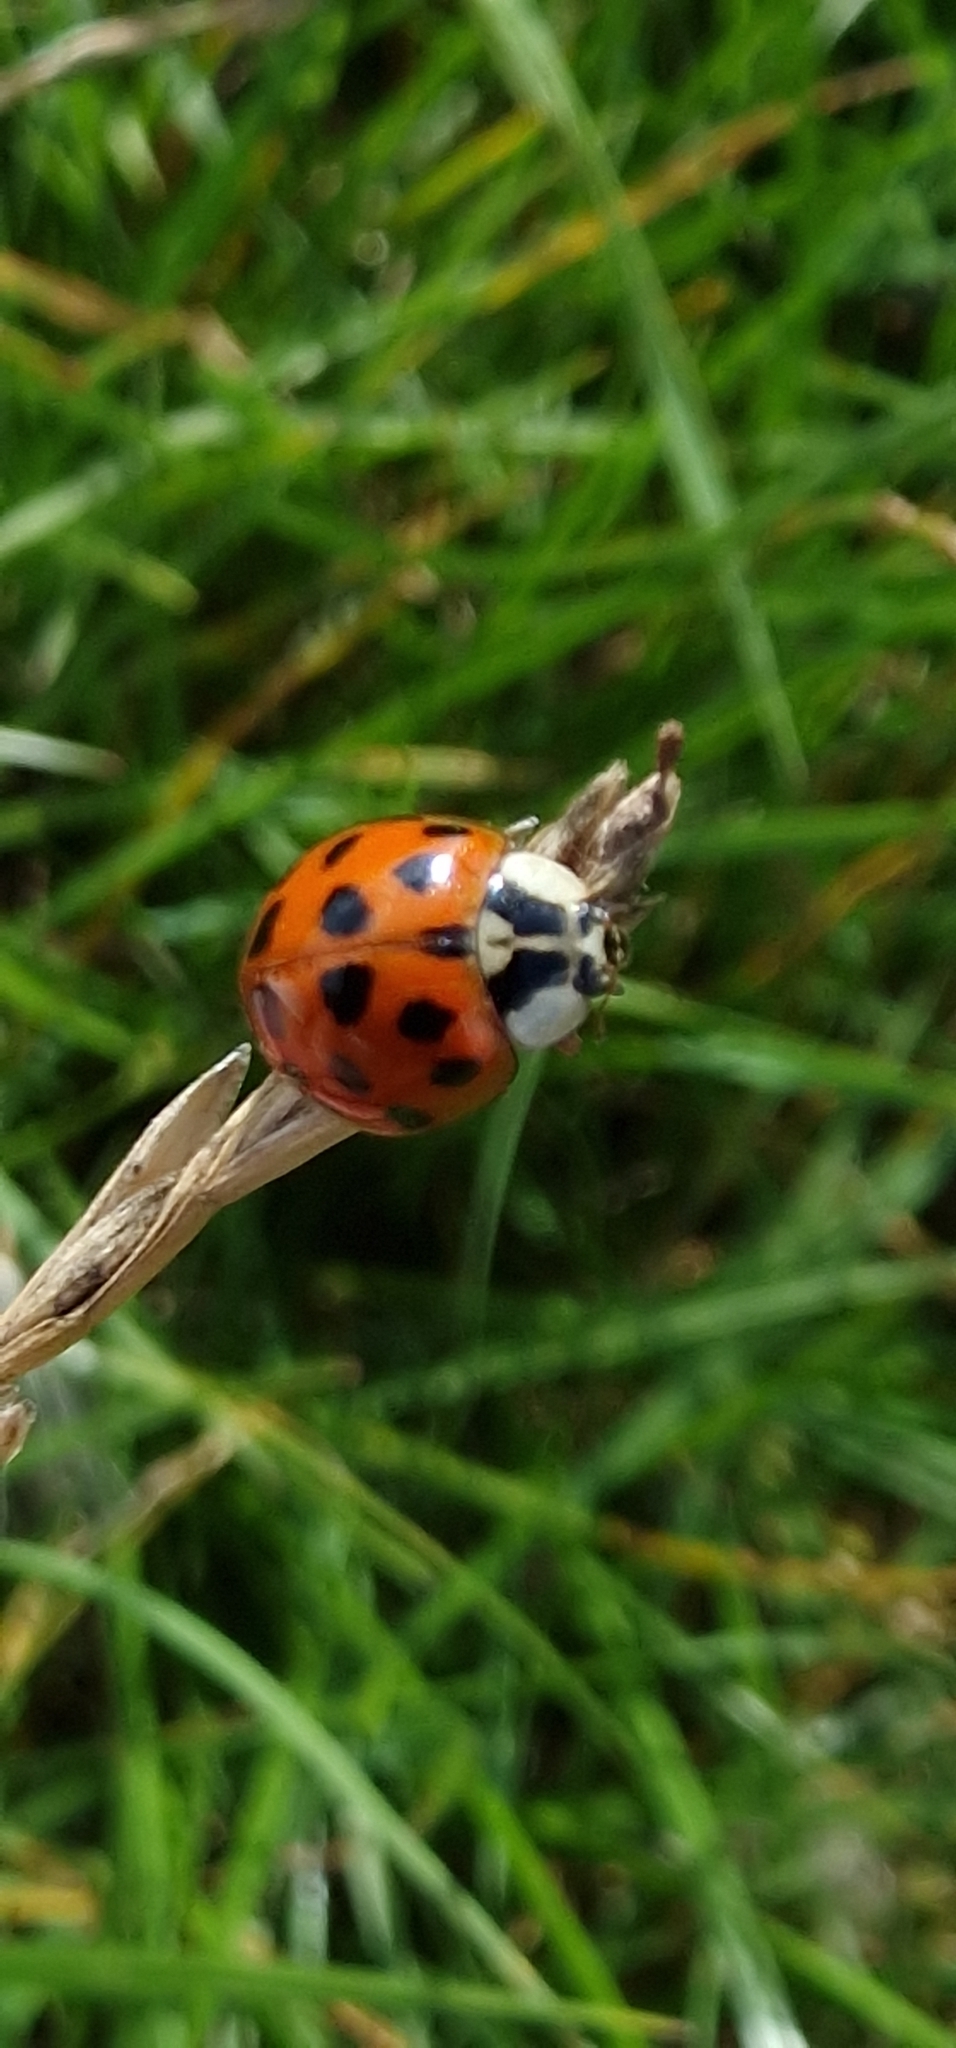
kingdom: Animalia
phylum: Arthropoda
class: Insecta
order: Coleoptera
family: Coccinellidae
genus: Harmonia
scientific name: Harmonia axyridis
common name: Harlequin ladybird
